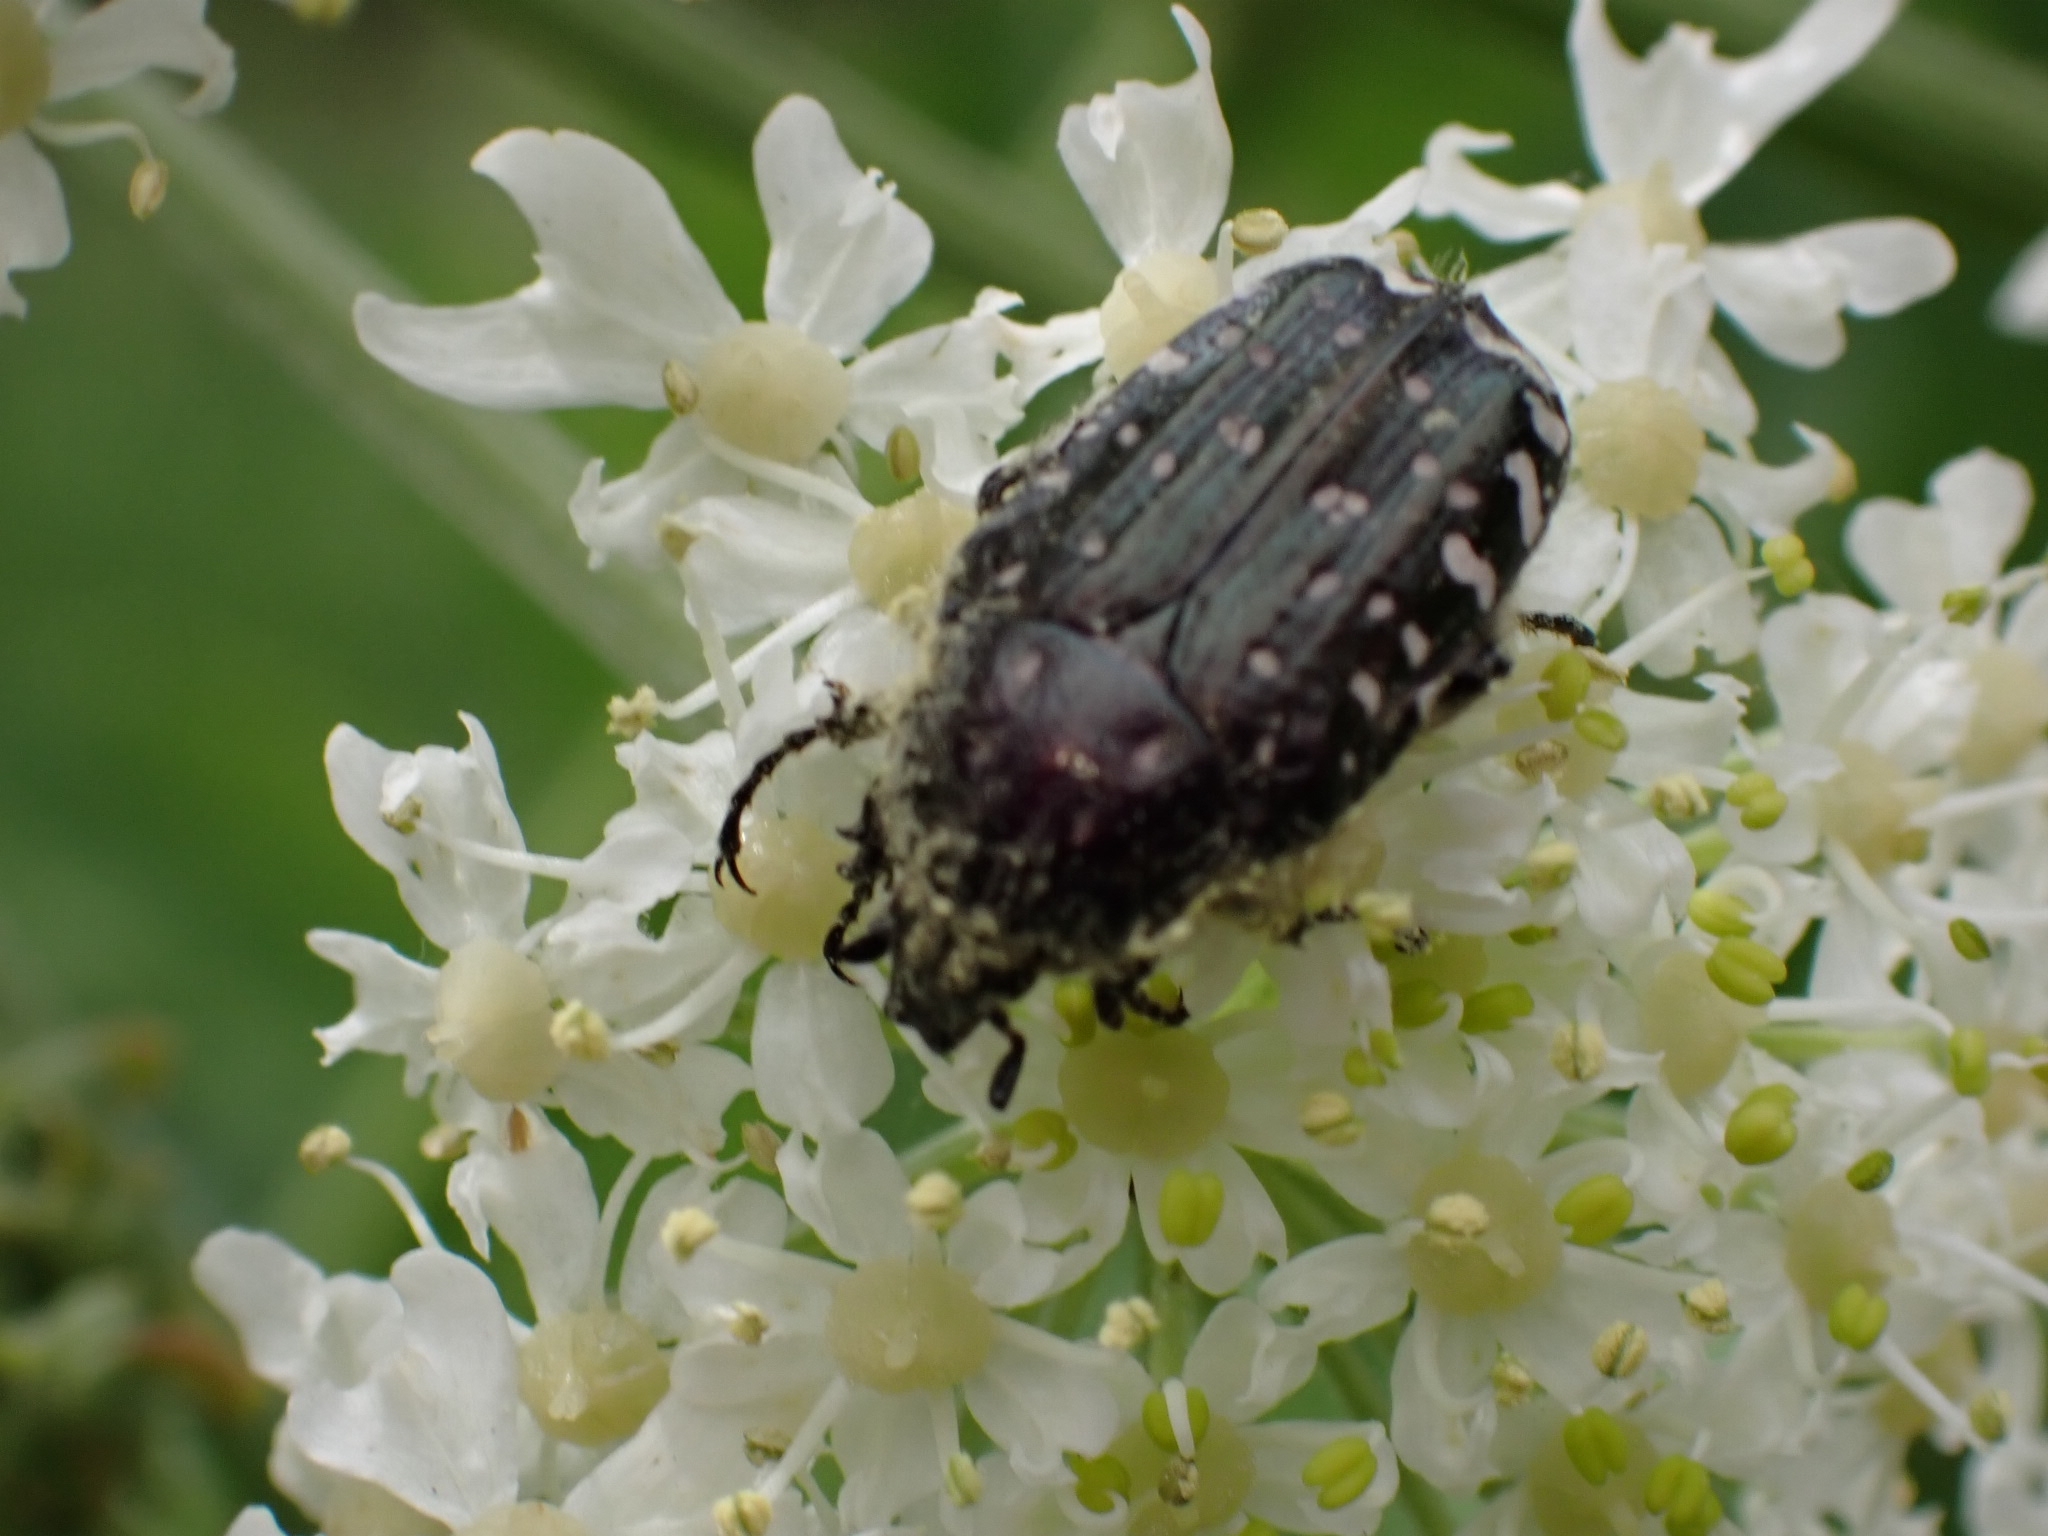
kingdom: Animalia
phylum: Arthropoda
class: Insecta
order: Coleoptera
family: Scarabaeidae
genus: Oxythyrea
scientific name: Oxythyrea funesta
